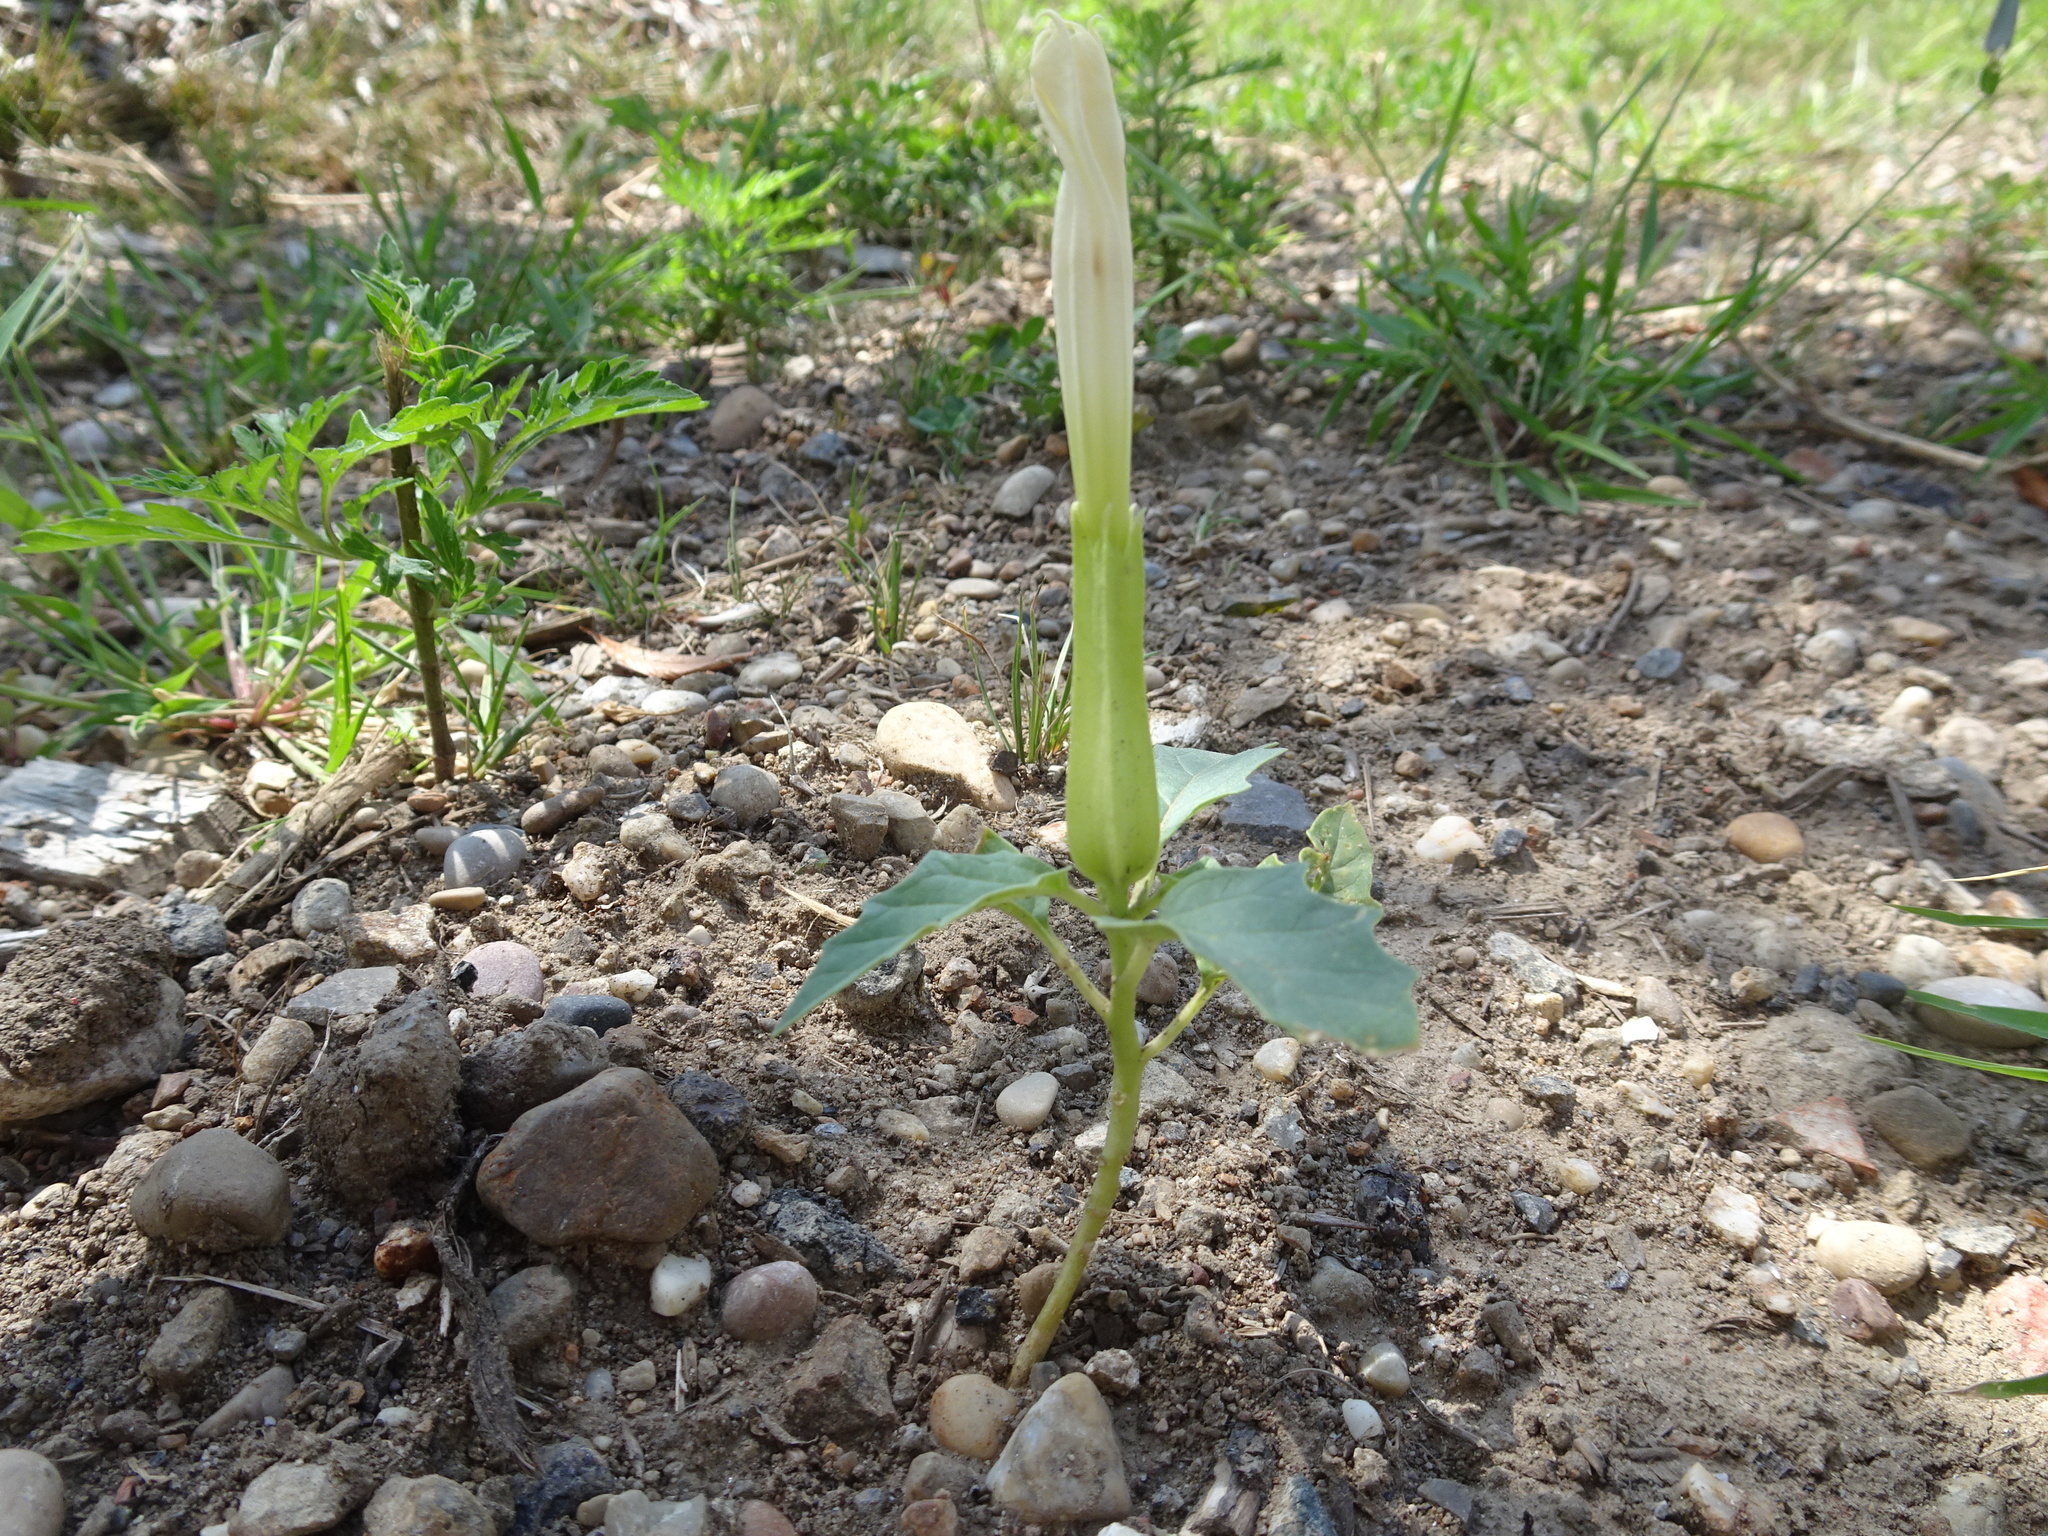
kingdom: Plantae
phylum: Tracheophyta
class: Magnoliopsida
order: Solanales
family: Solanaceae
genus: Datura
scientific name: Datura stramonium
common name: Thorn-apple
